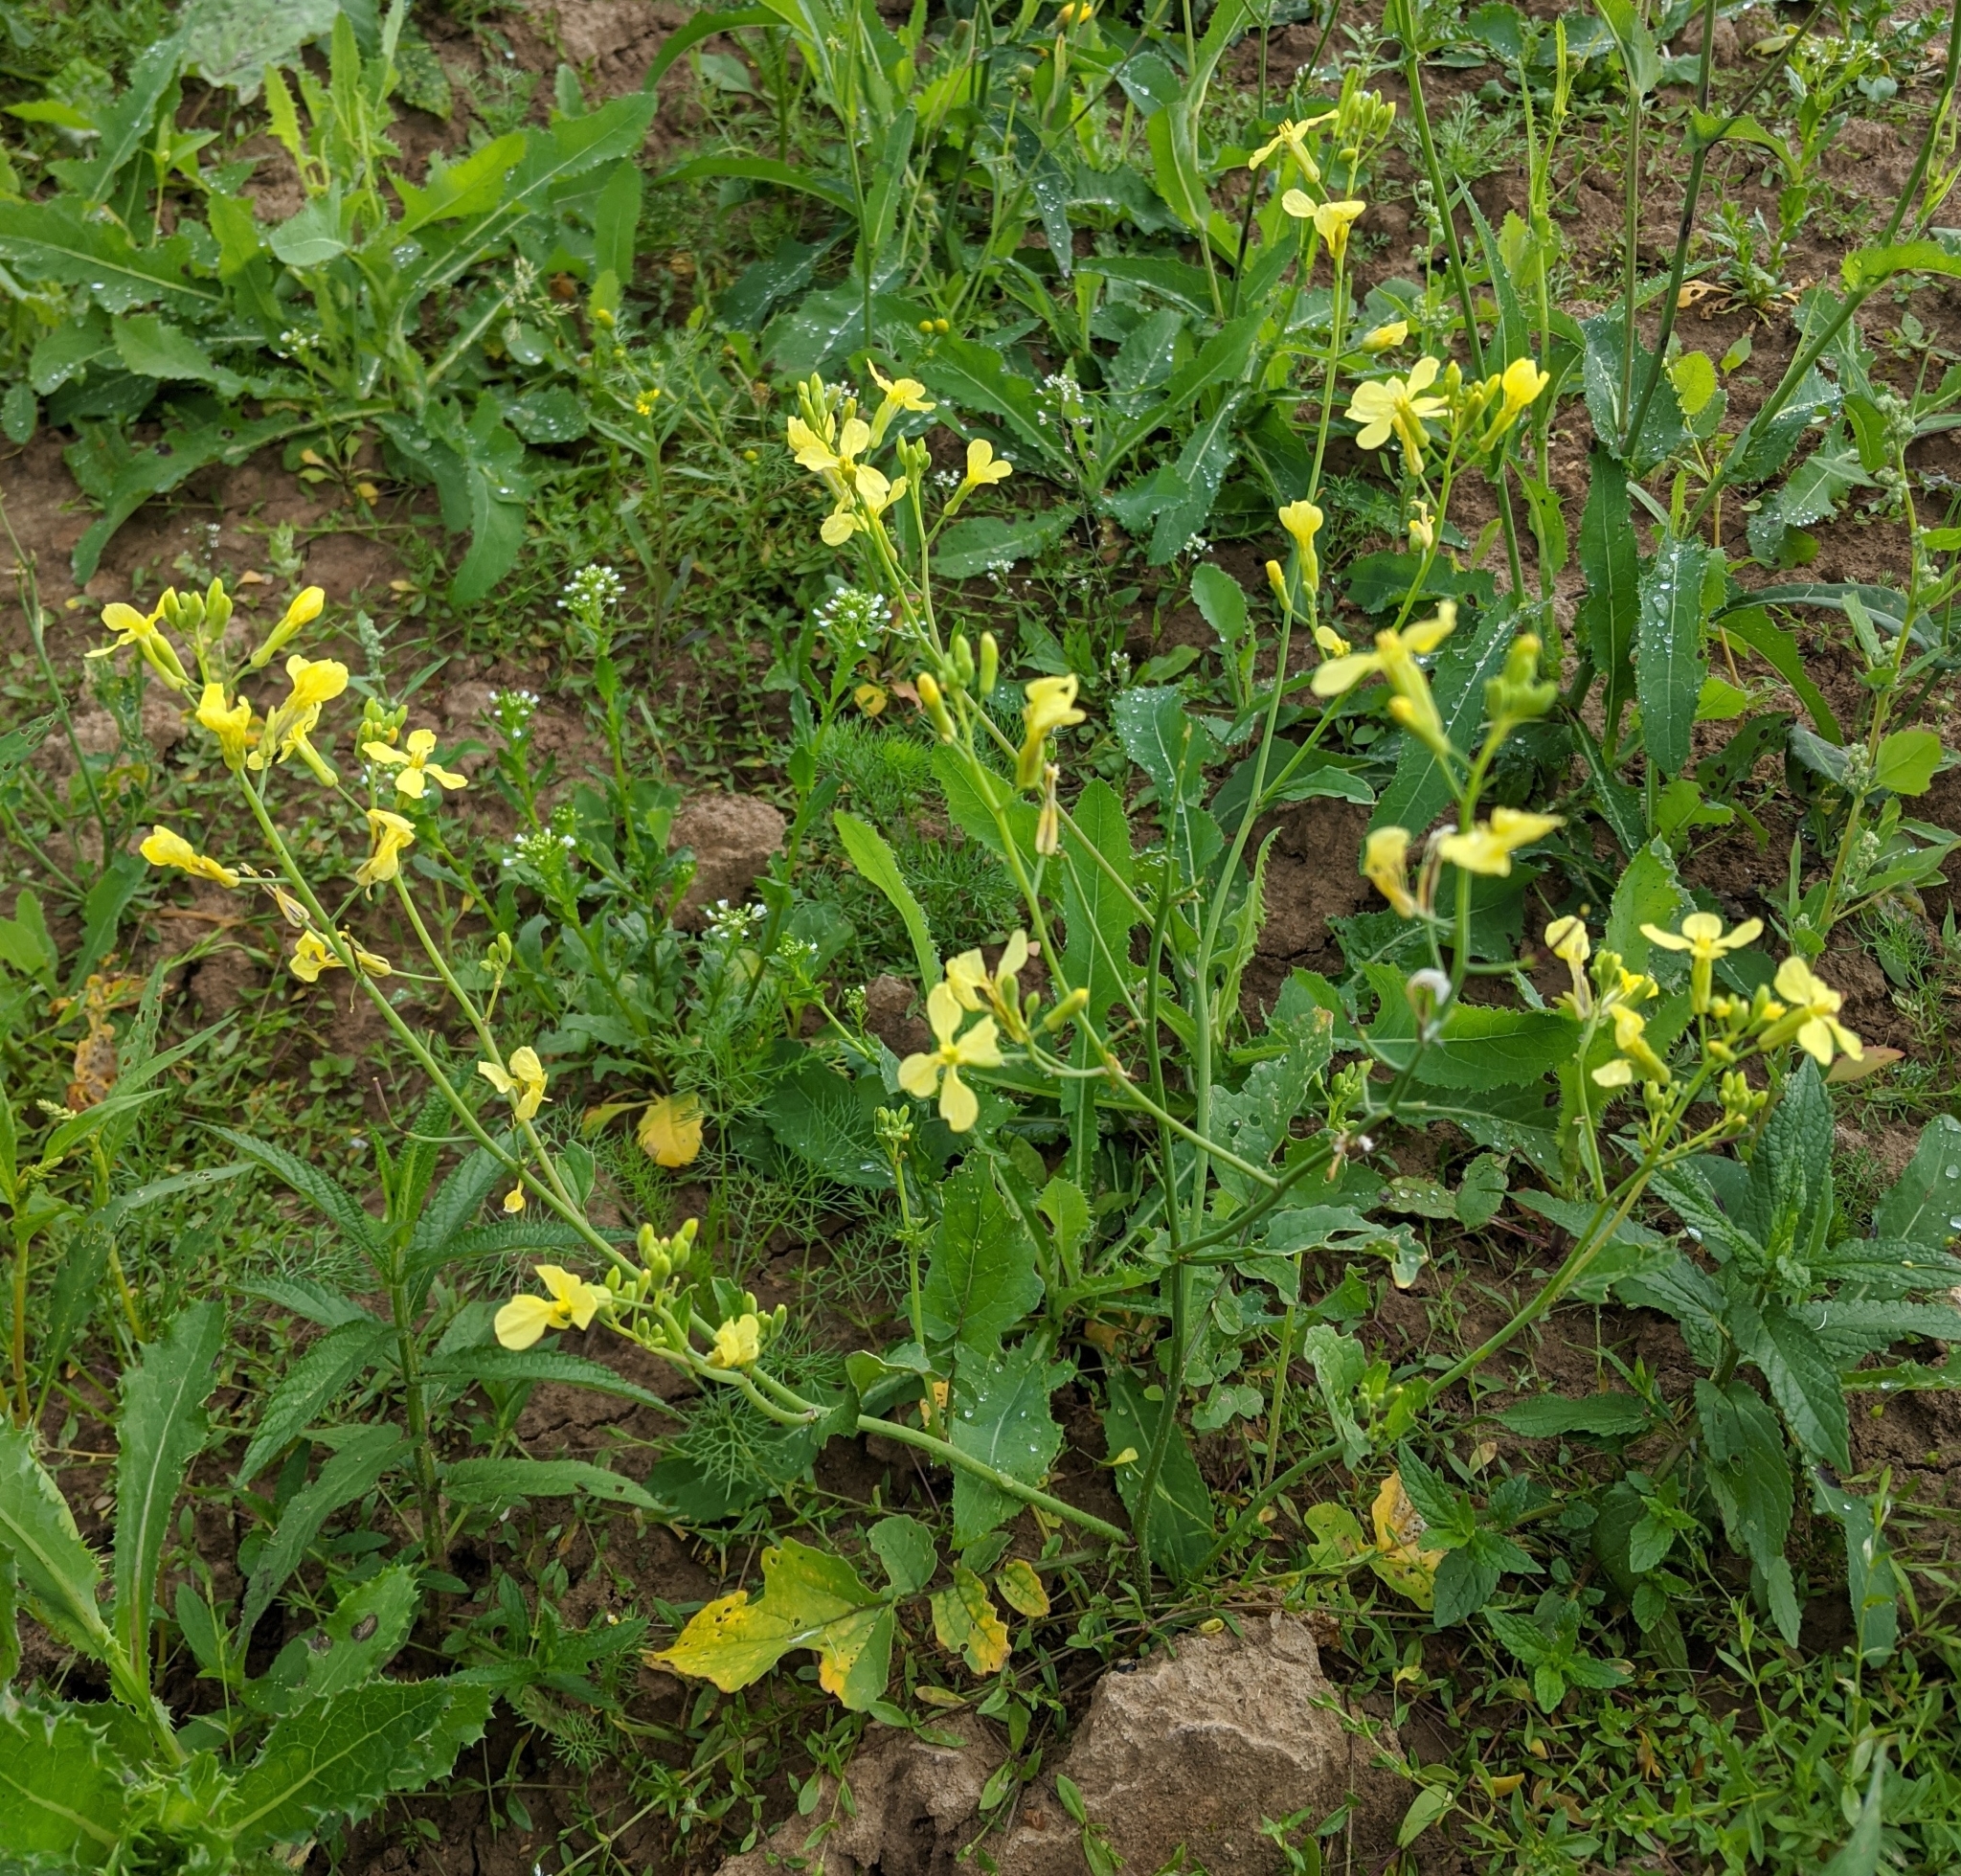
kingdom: Plantae
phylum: Tracheophyta
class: Magnoliopsida
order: Brassicales
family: Brassicaceae
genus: Raphanus
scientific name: Raphanus raphanistrum
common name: Wild radish
